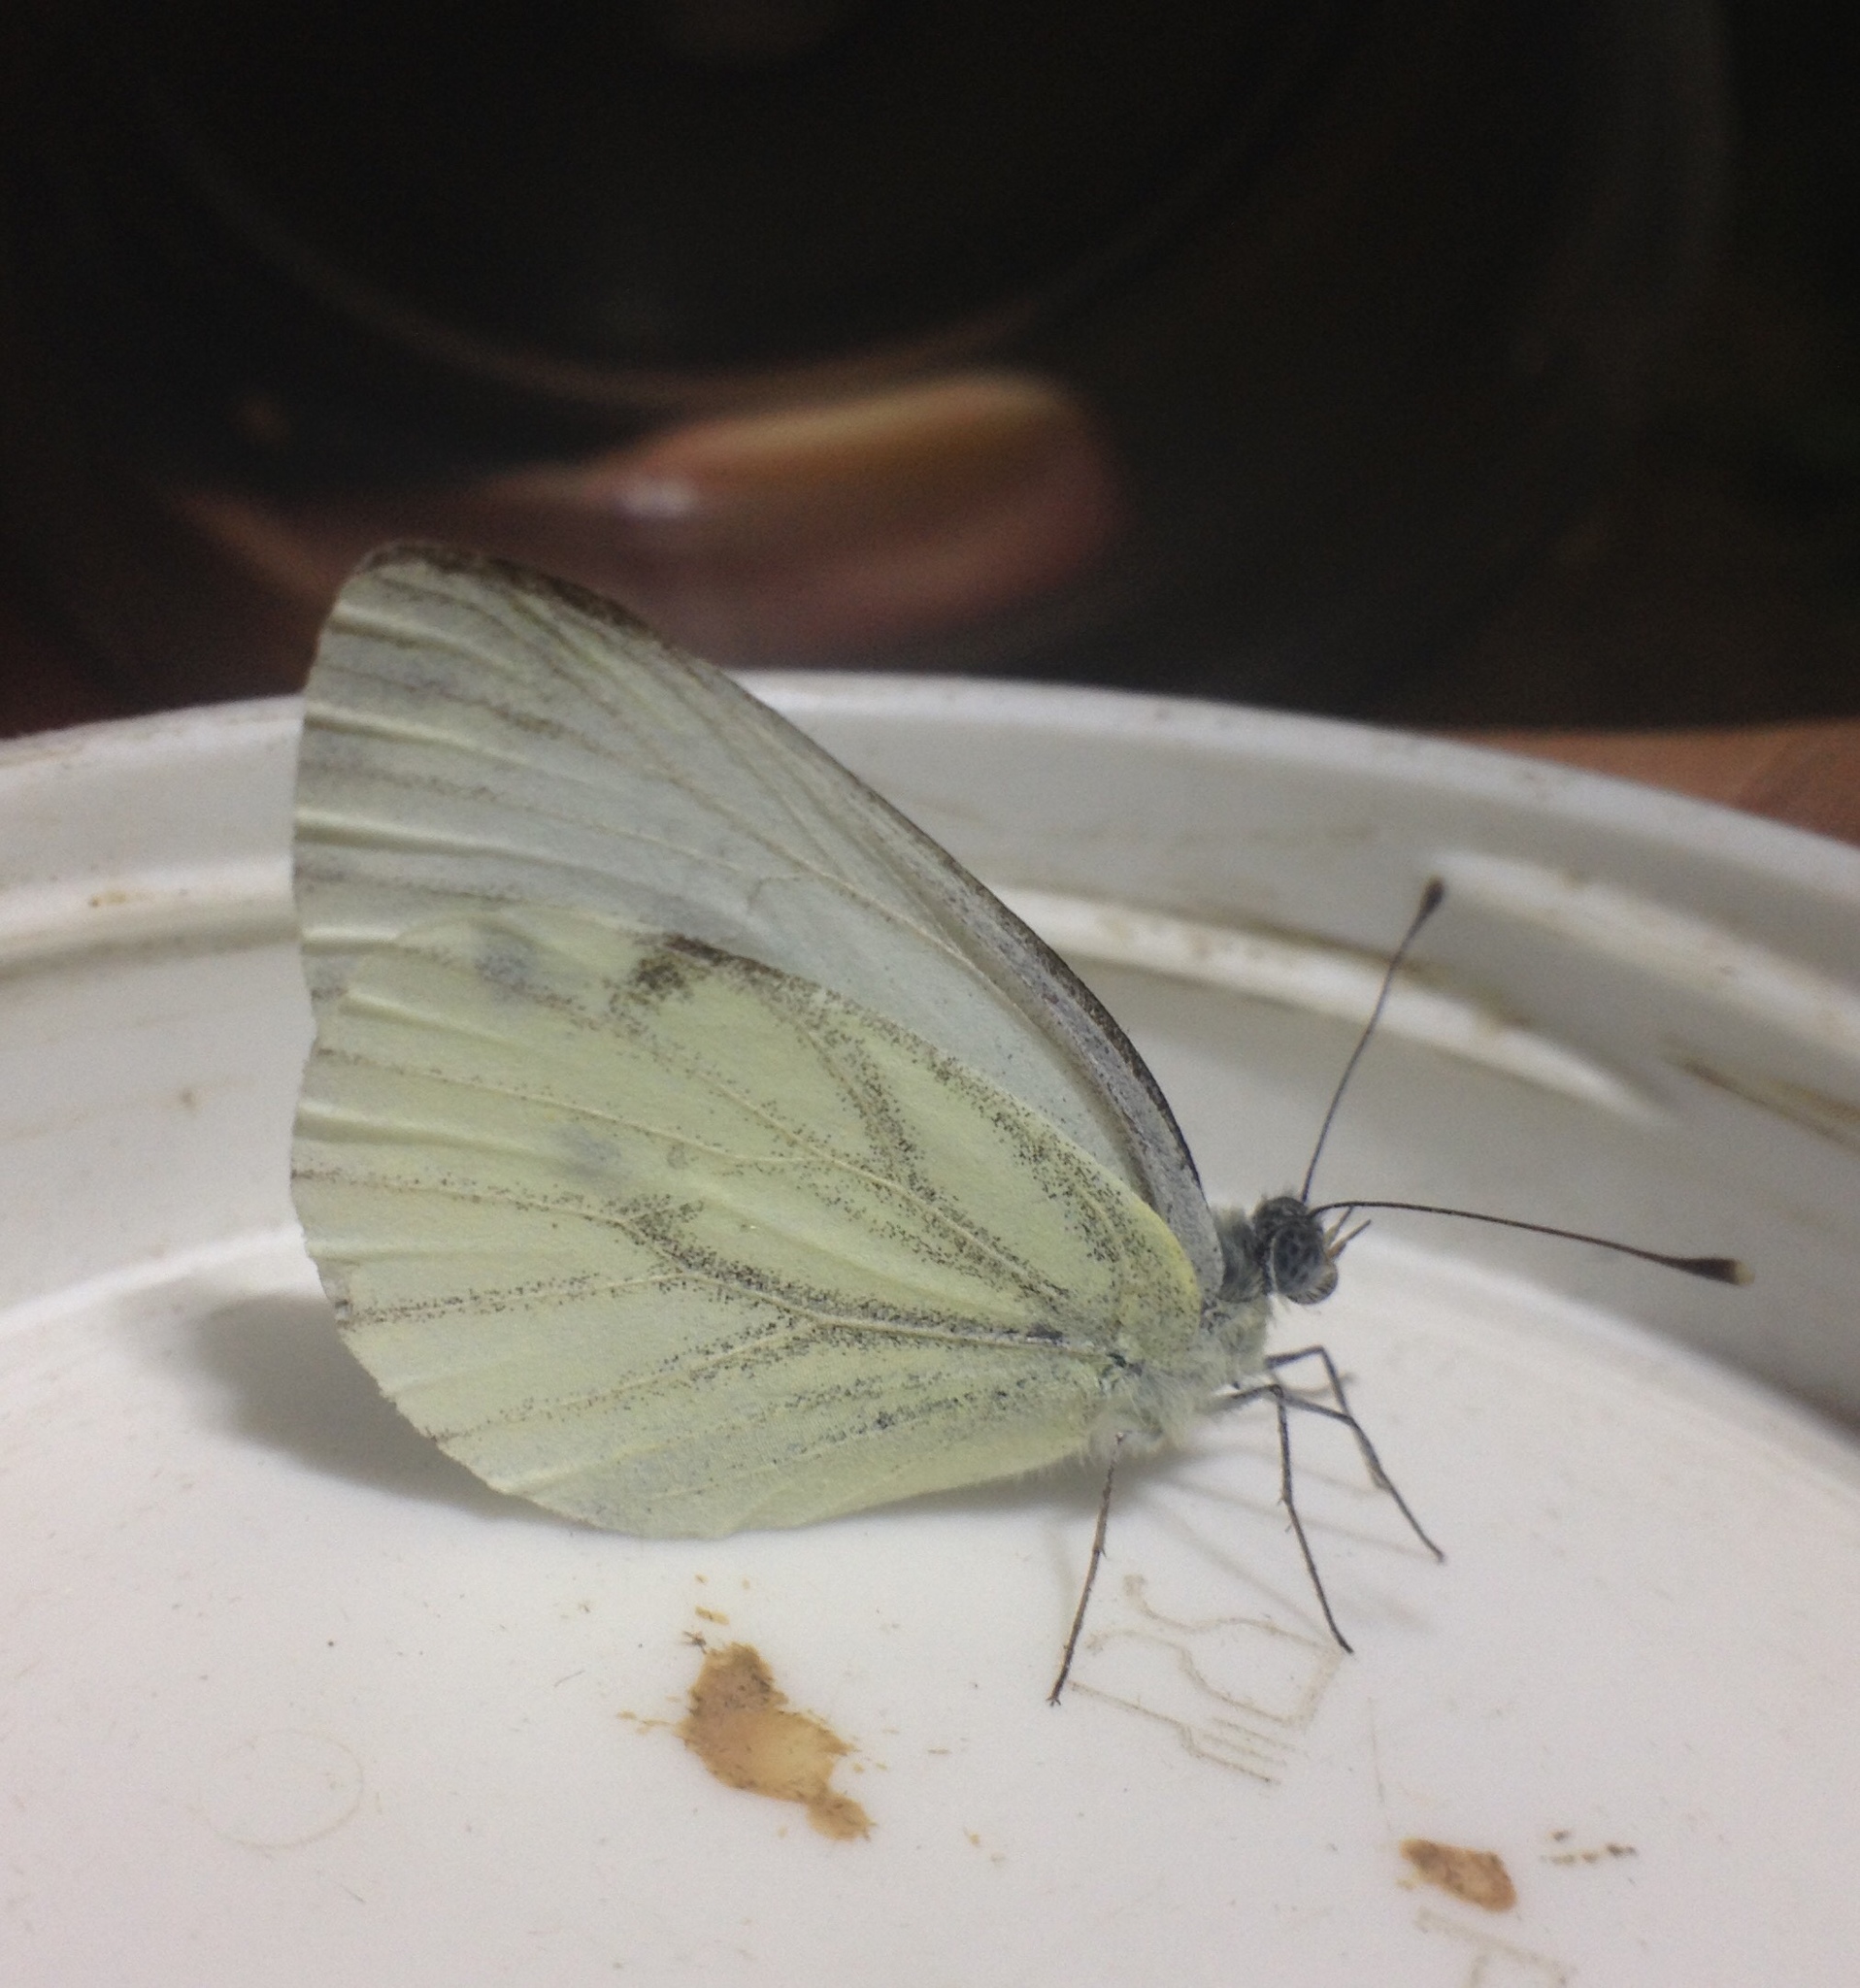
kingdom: Animalia
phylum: Arthropoda
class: Insecta
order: Lepidoptera
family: Pieridae
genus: Pieris
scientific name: Pieris napi
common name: Green-veined white
